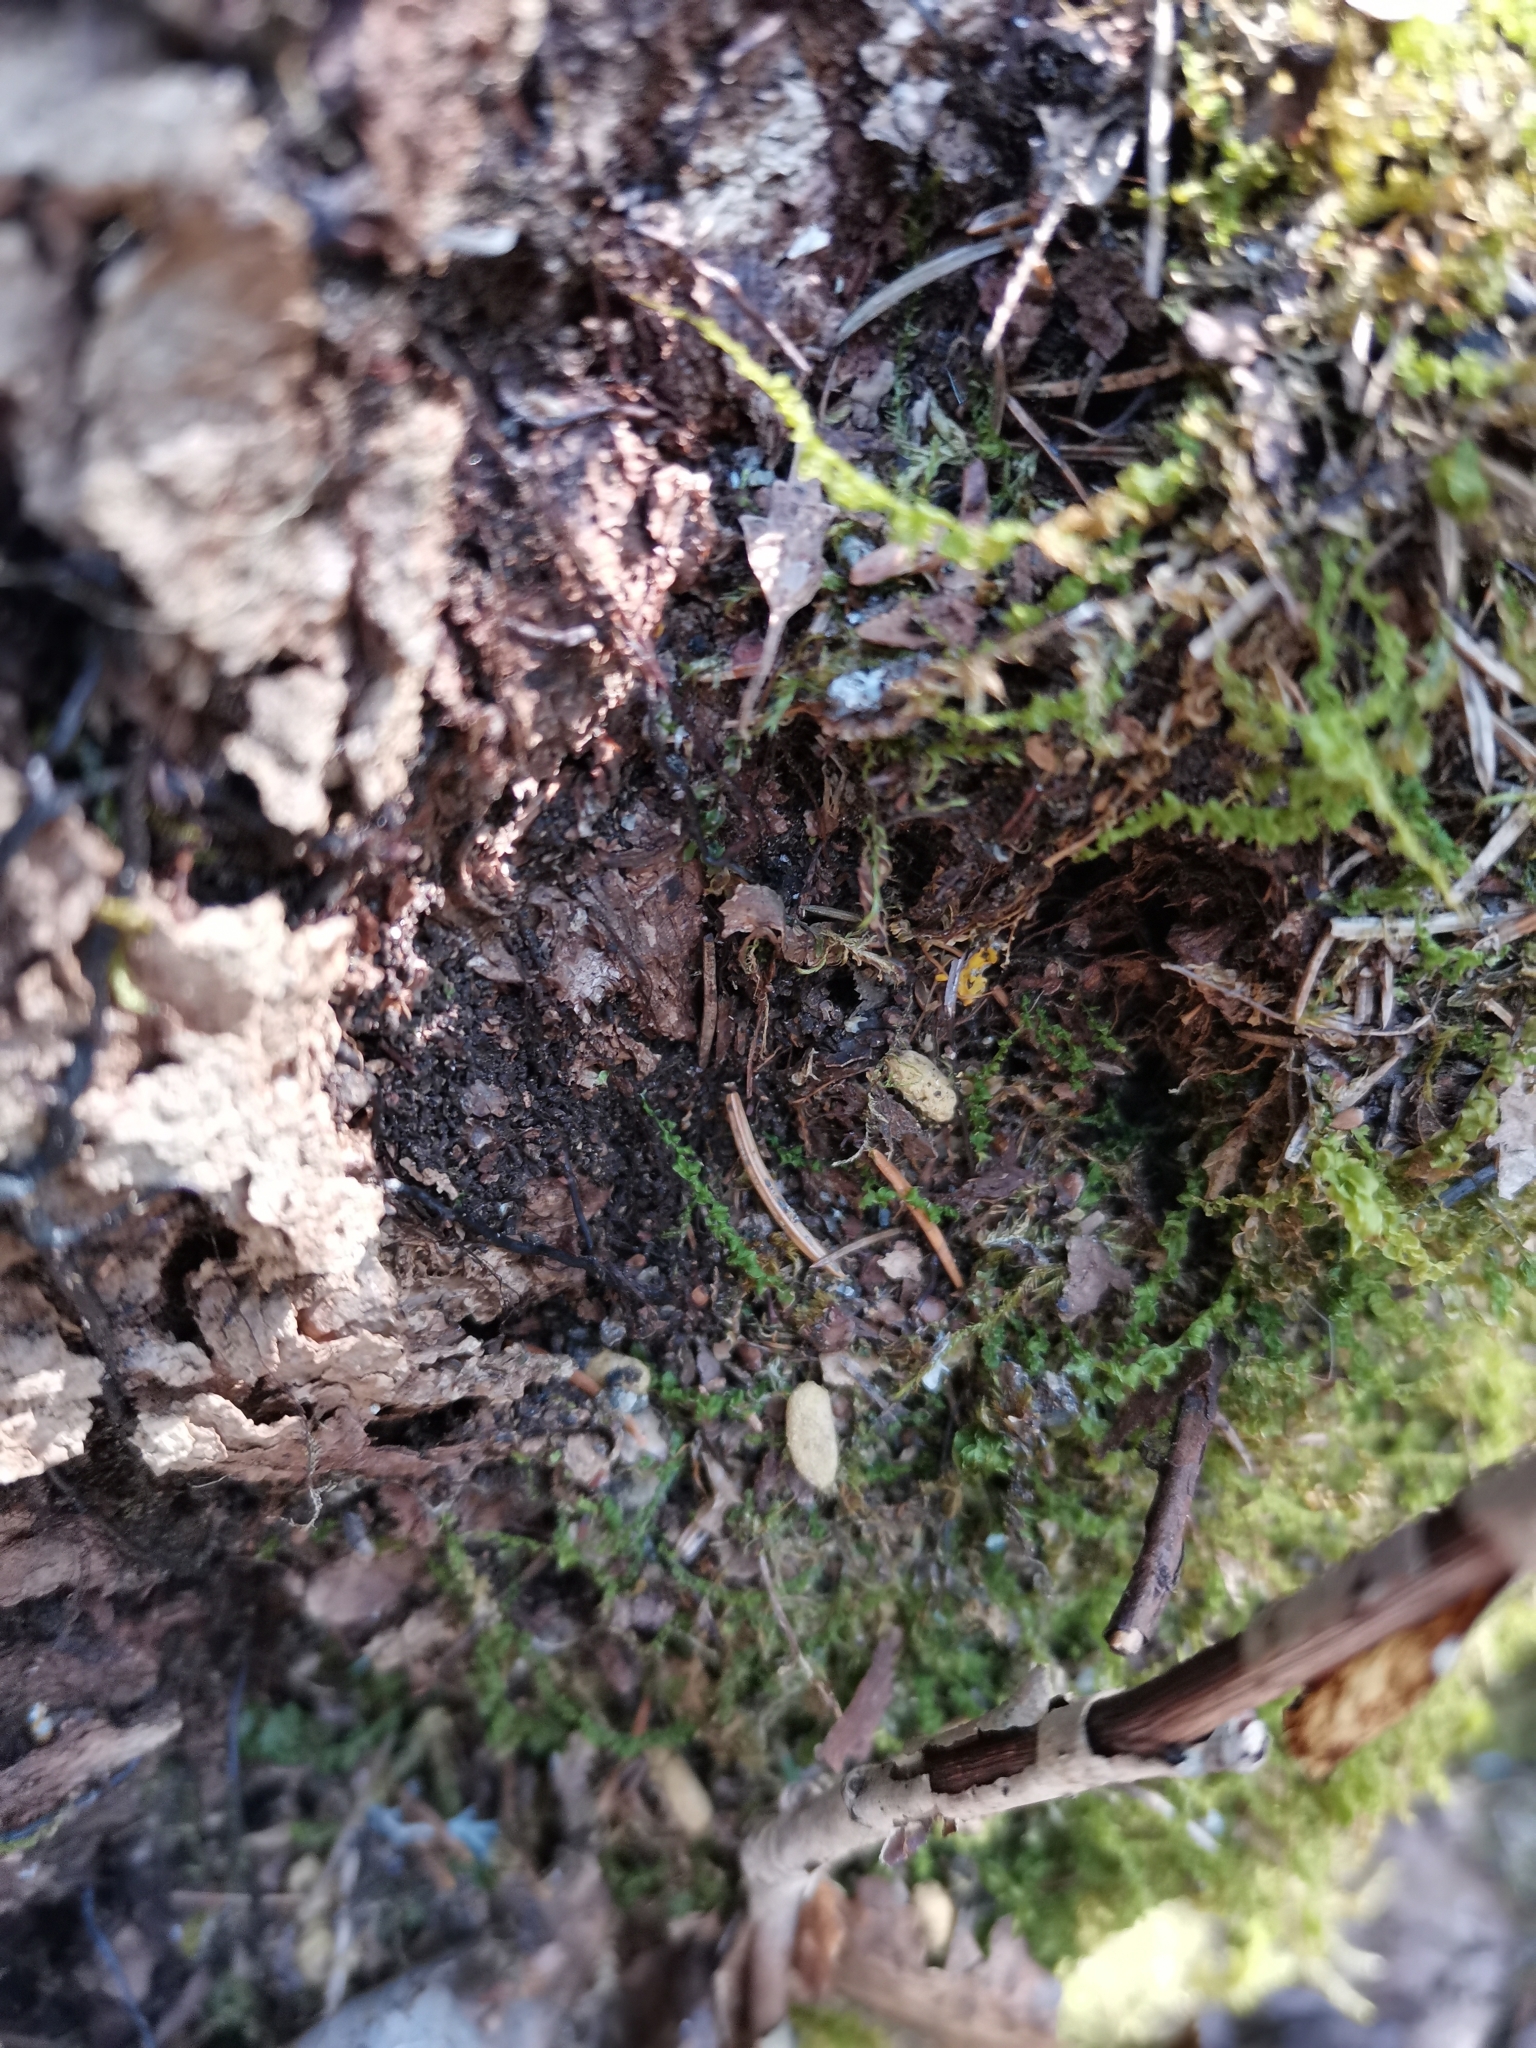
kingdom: Animalia
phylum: Chordata
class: Mammalia
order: Rodentia
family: Sciuridae
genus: Pteromys
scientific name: Pteromys volans
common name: Siberian flying squirrel
